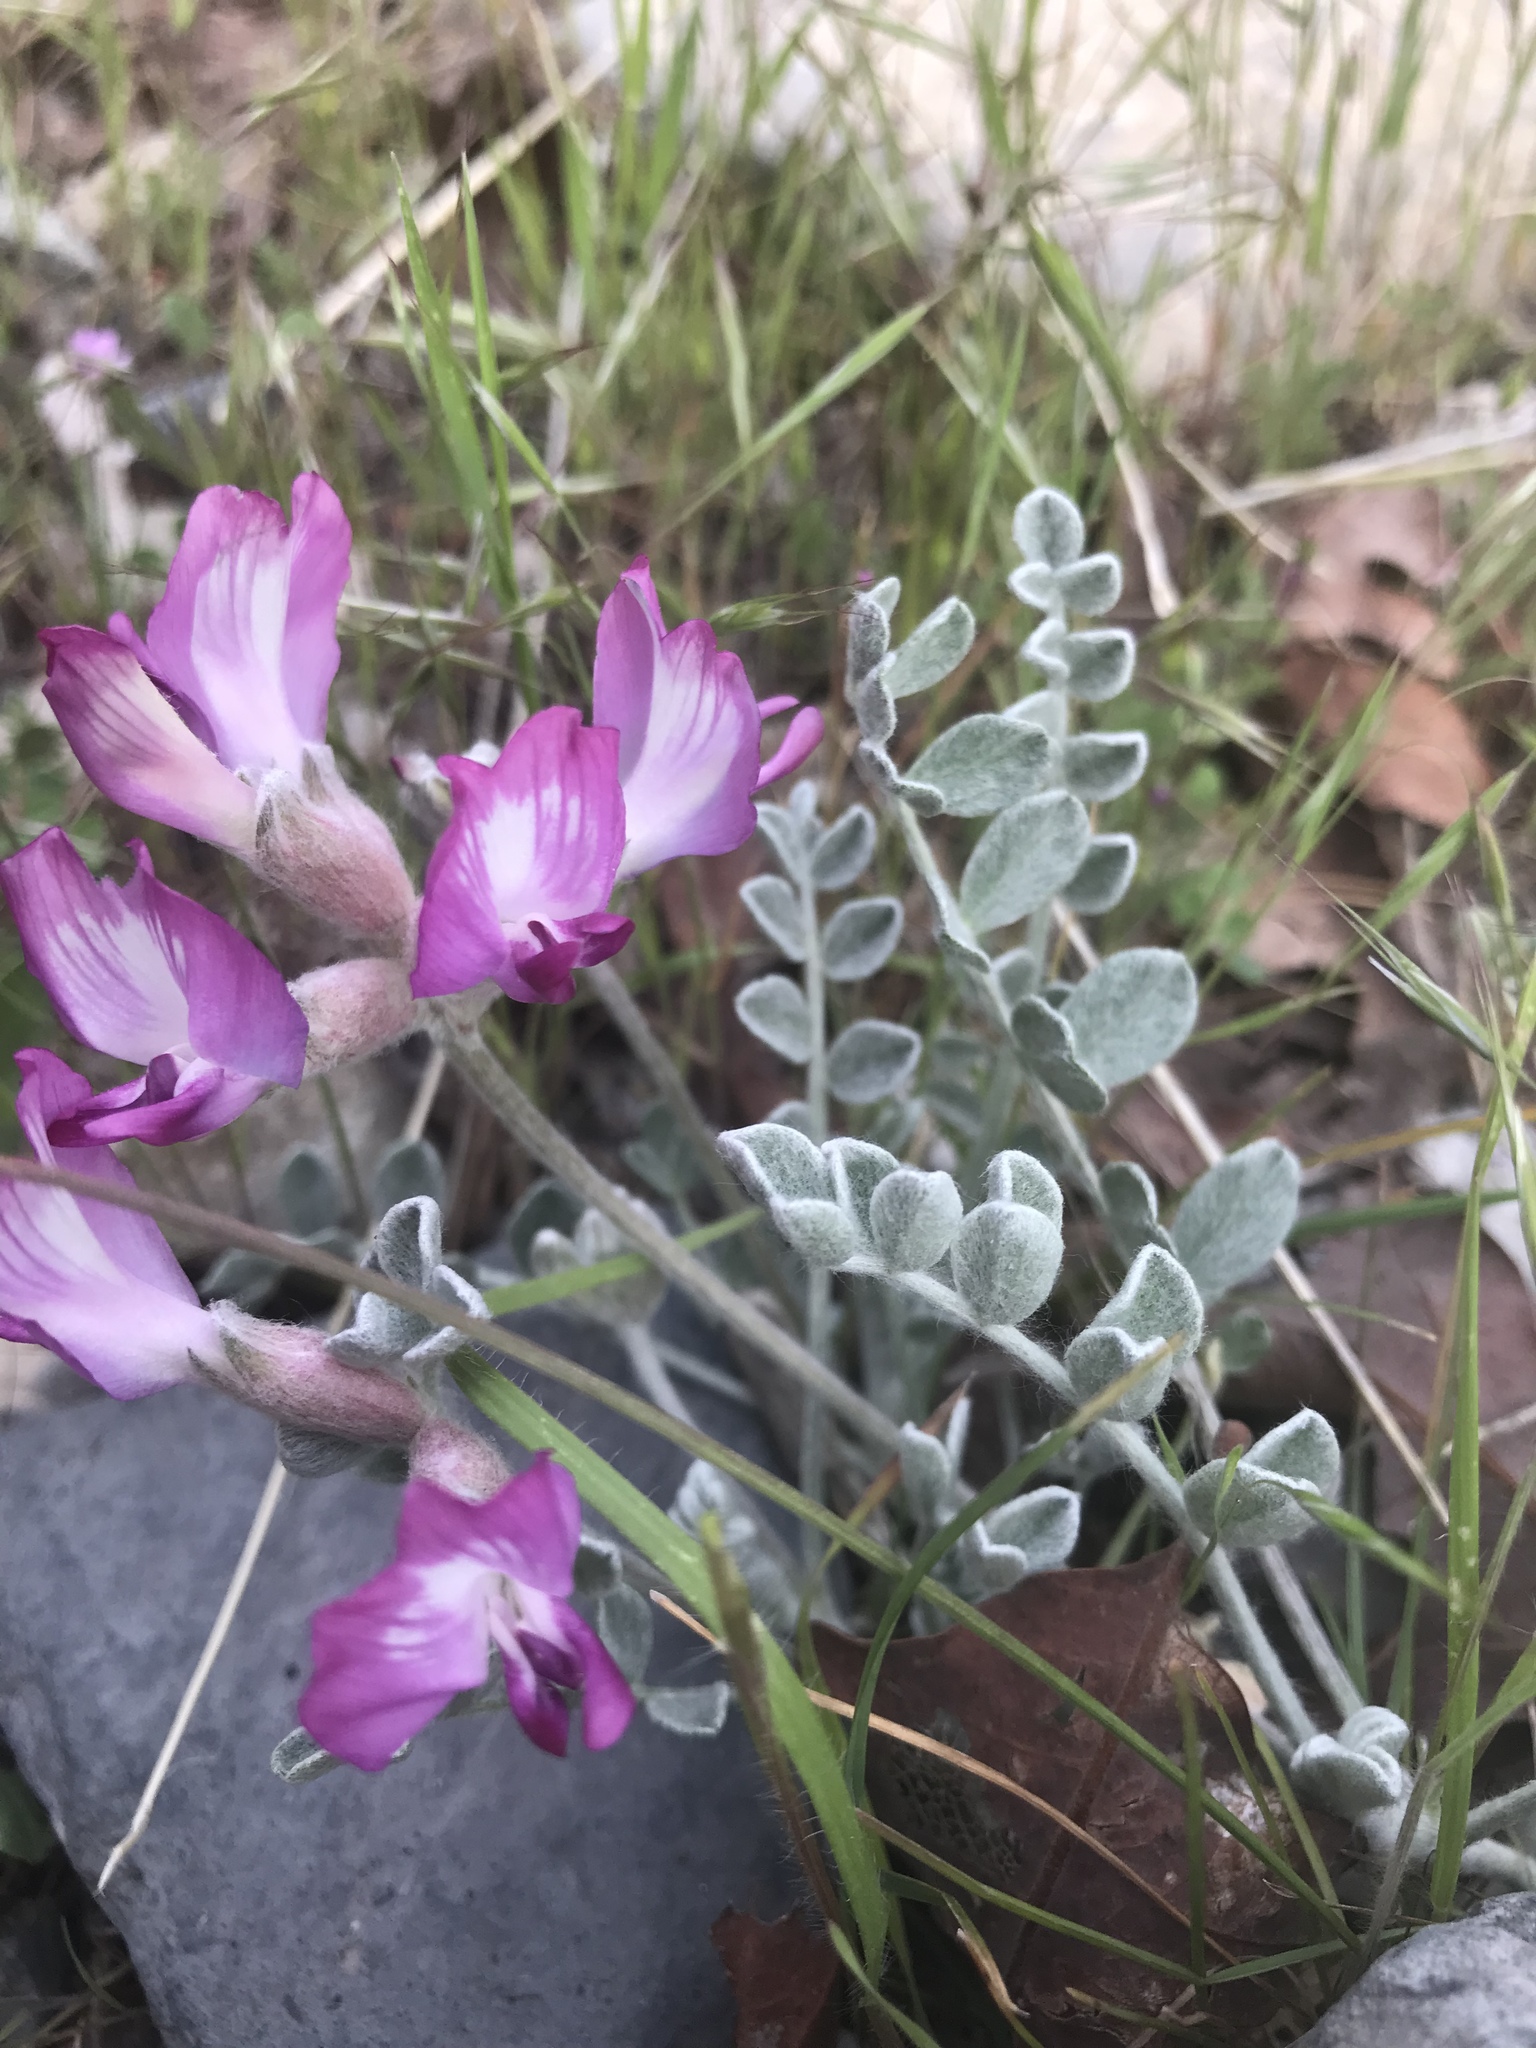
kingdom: Plantae
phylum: Tracheophyta
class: Magnoliopsida
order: Fabales
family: Fabaceae
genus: Astragalus
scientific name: Astragalus utahensis
